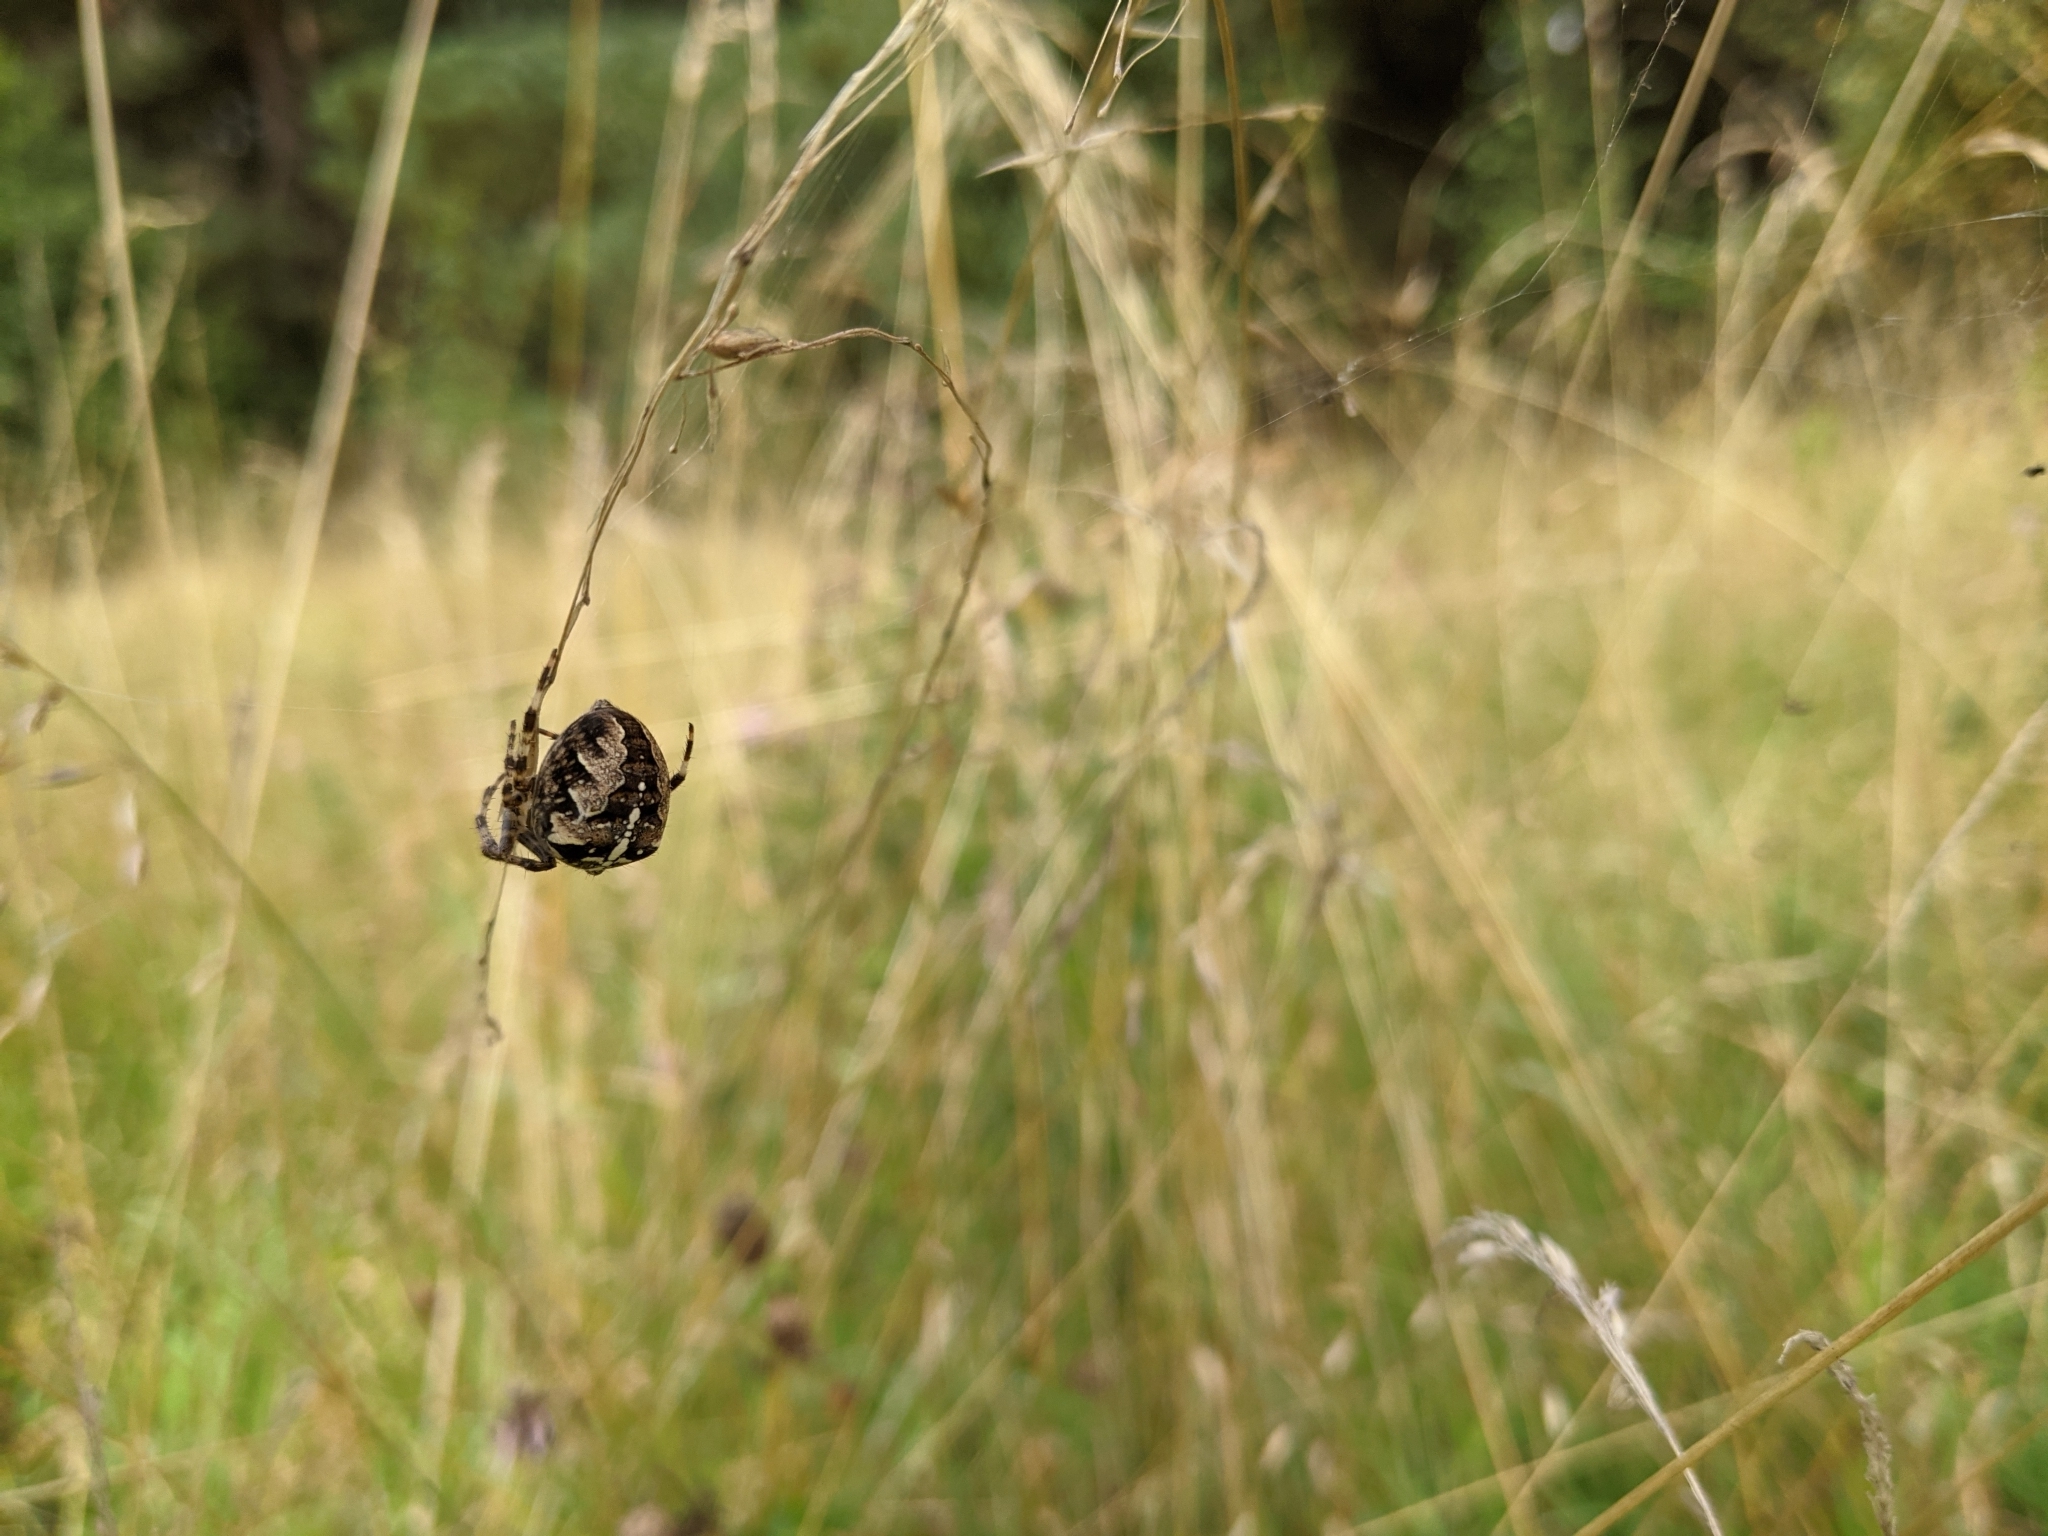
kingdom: Animalia
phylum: Arthropoda
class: Arachnida
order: Araneae
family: Araneidae
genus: Araneus
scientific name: Araneus diadematus
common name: Cross orbweaver
